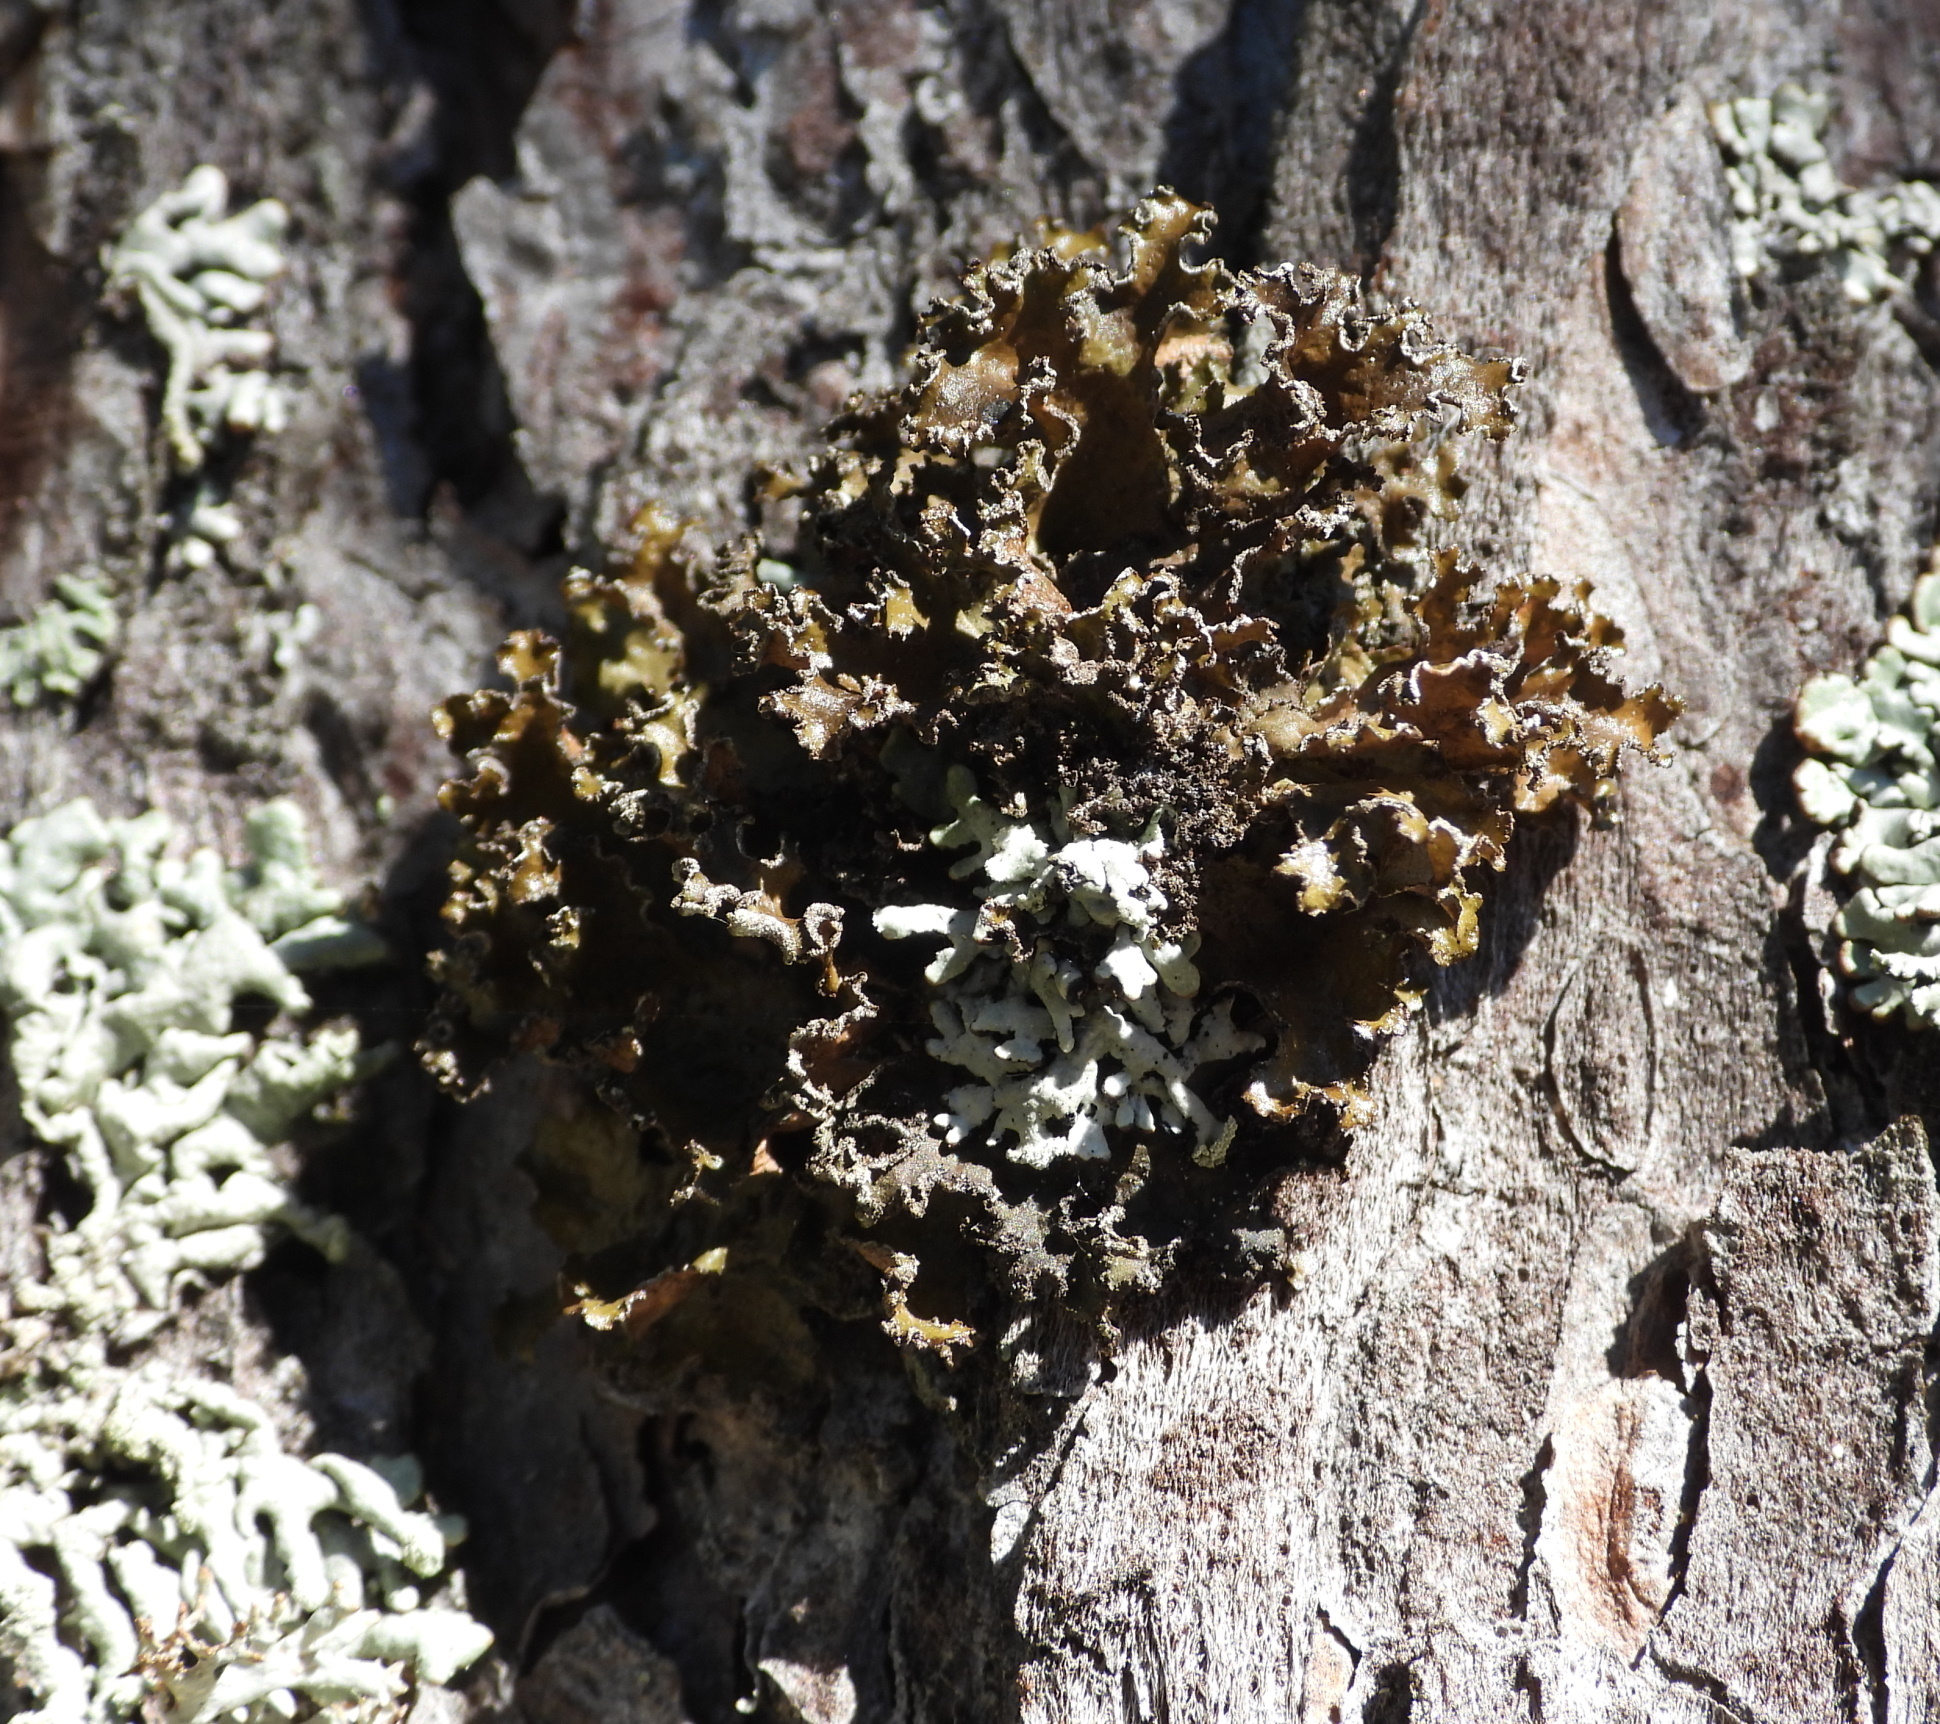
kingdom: Fungi
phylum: Ascomycota
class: Lecanoromycetes
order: Lecanorales
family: Parmeliaceae
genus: Nephromopsis
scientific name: Nephromopsis chlorophylla
